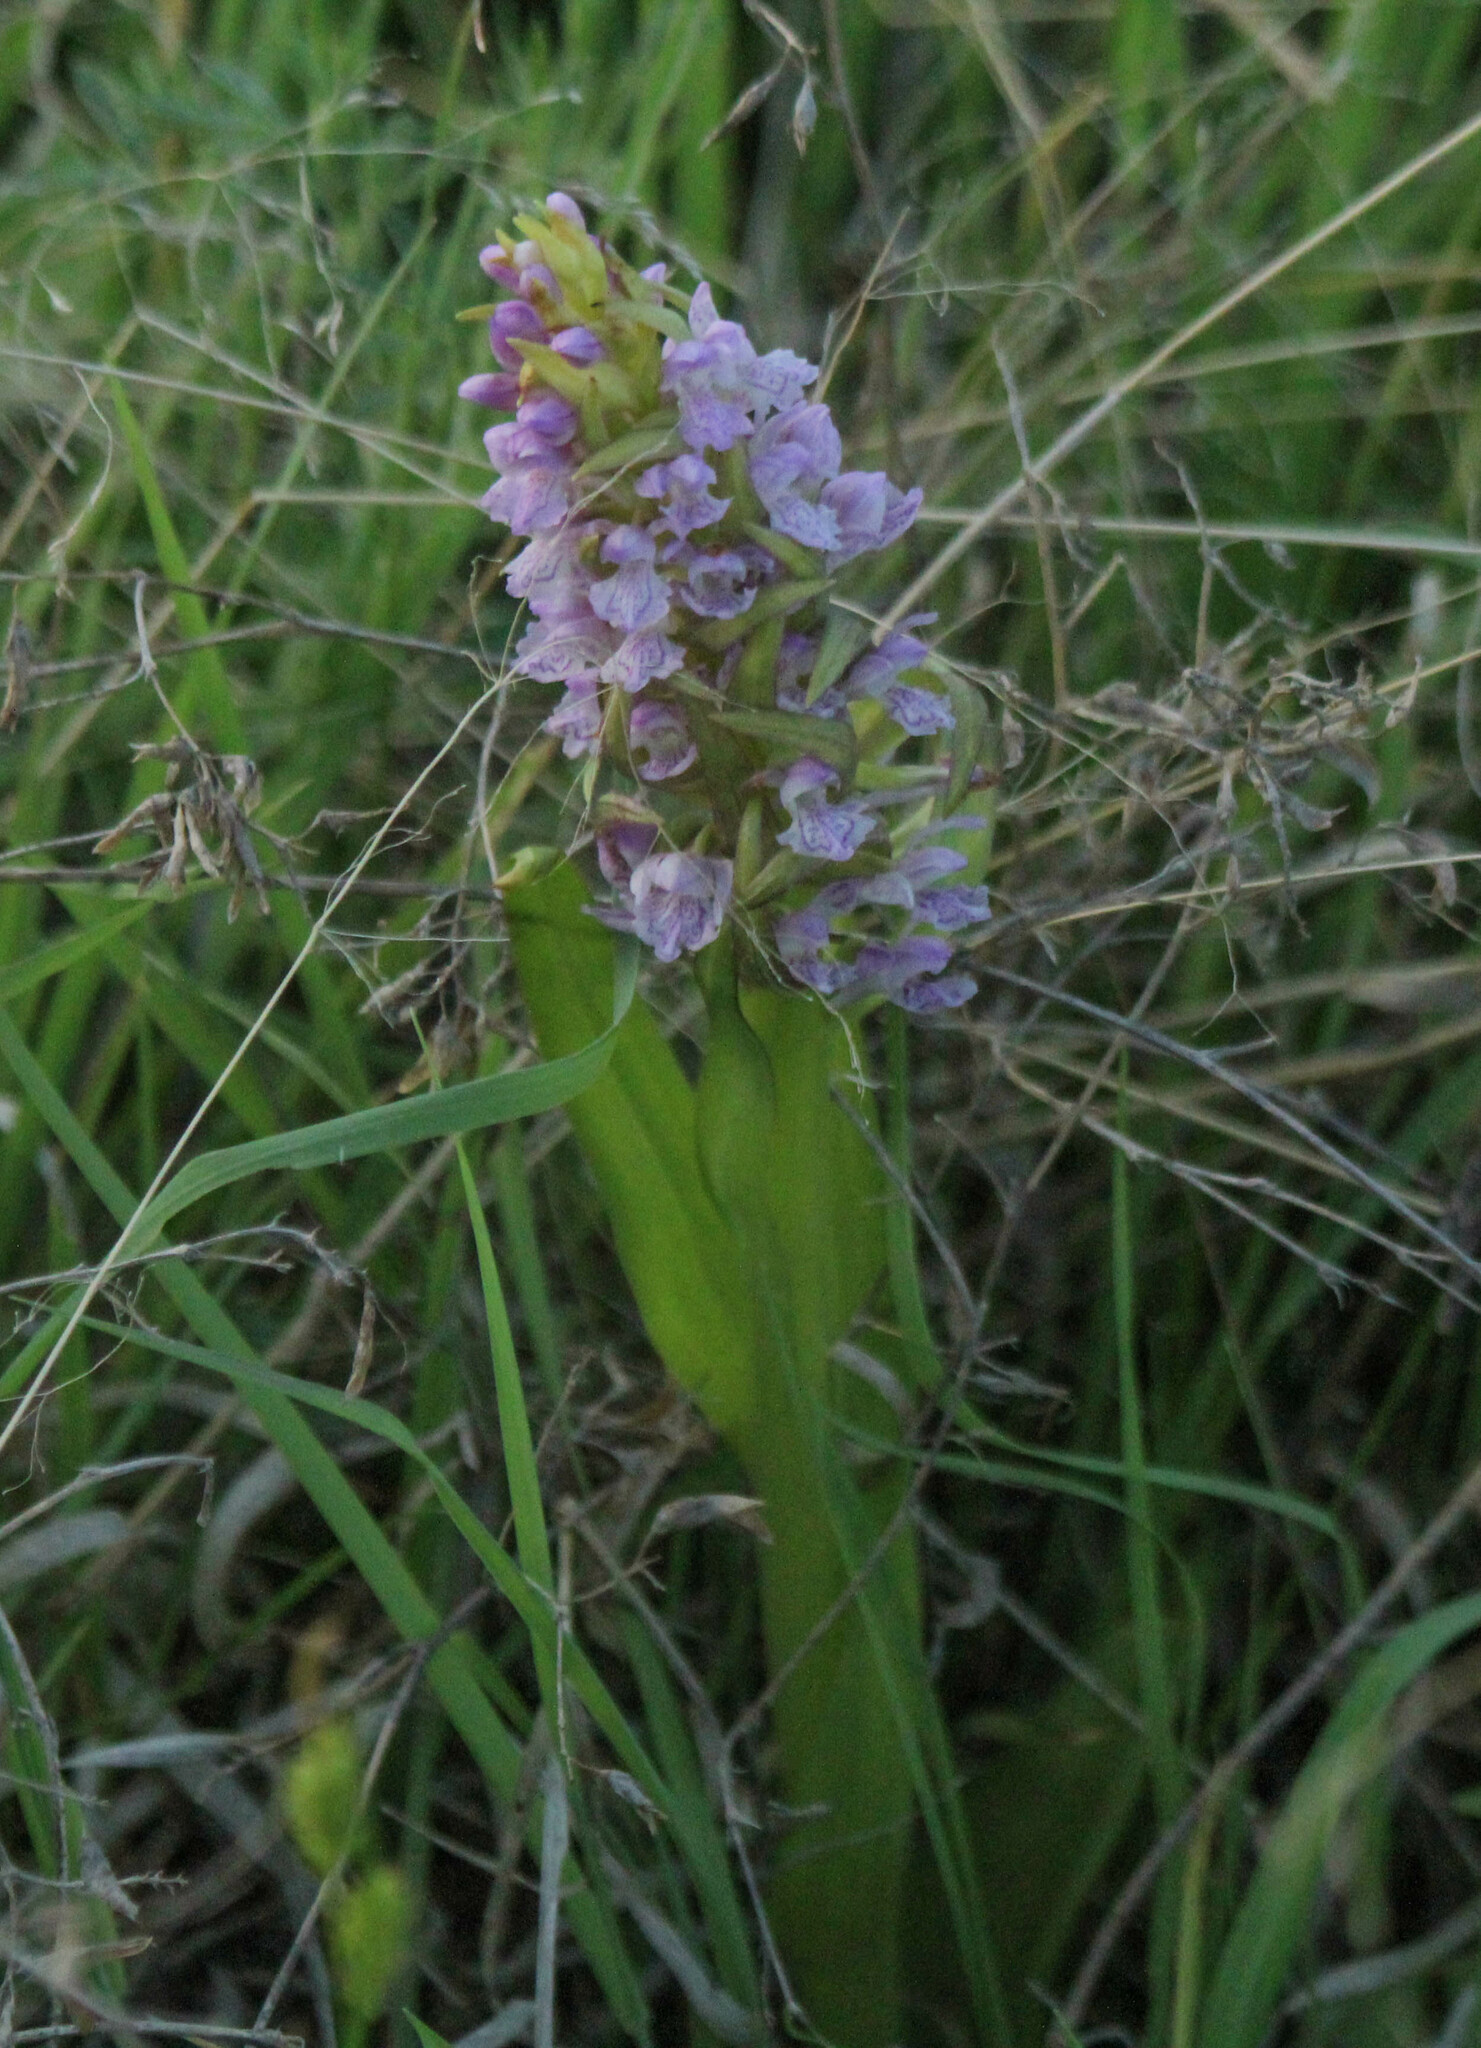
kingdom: Plantae
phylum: Tracheophyta
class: Liliopsida
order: Asparagales
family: Orchidaceae
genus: Dactylorhiza
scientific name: Dactylorhiza incarnata
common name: Early marsh-orchid
